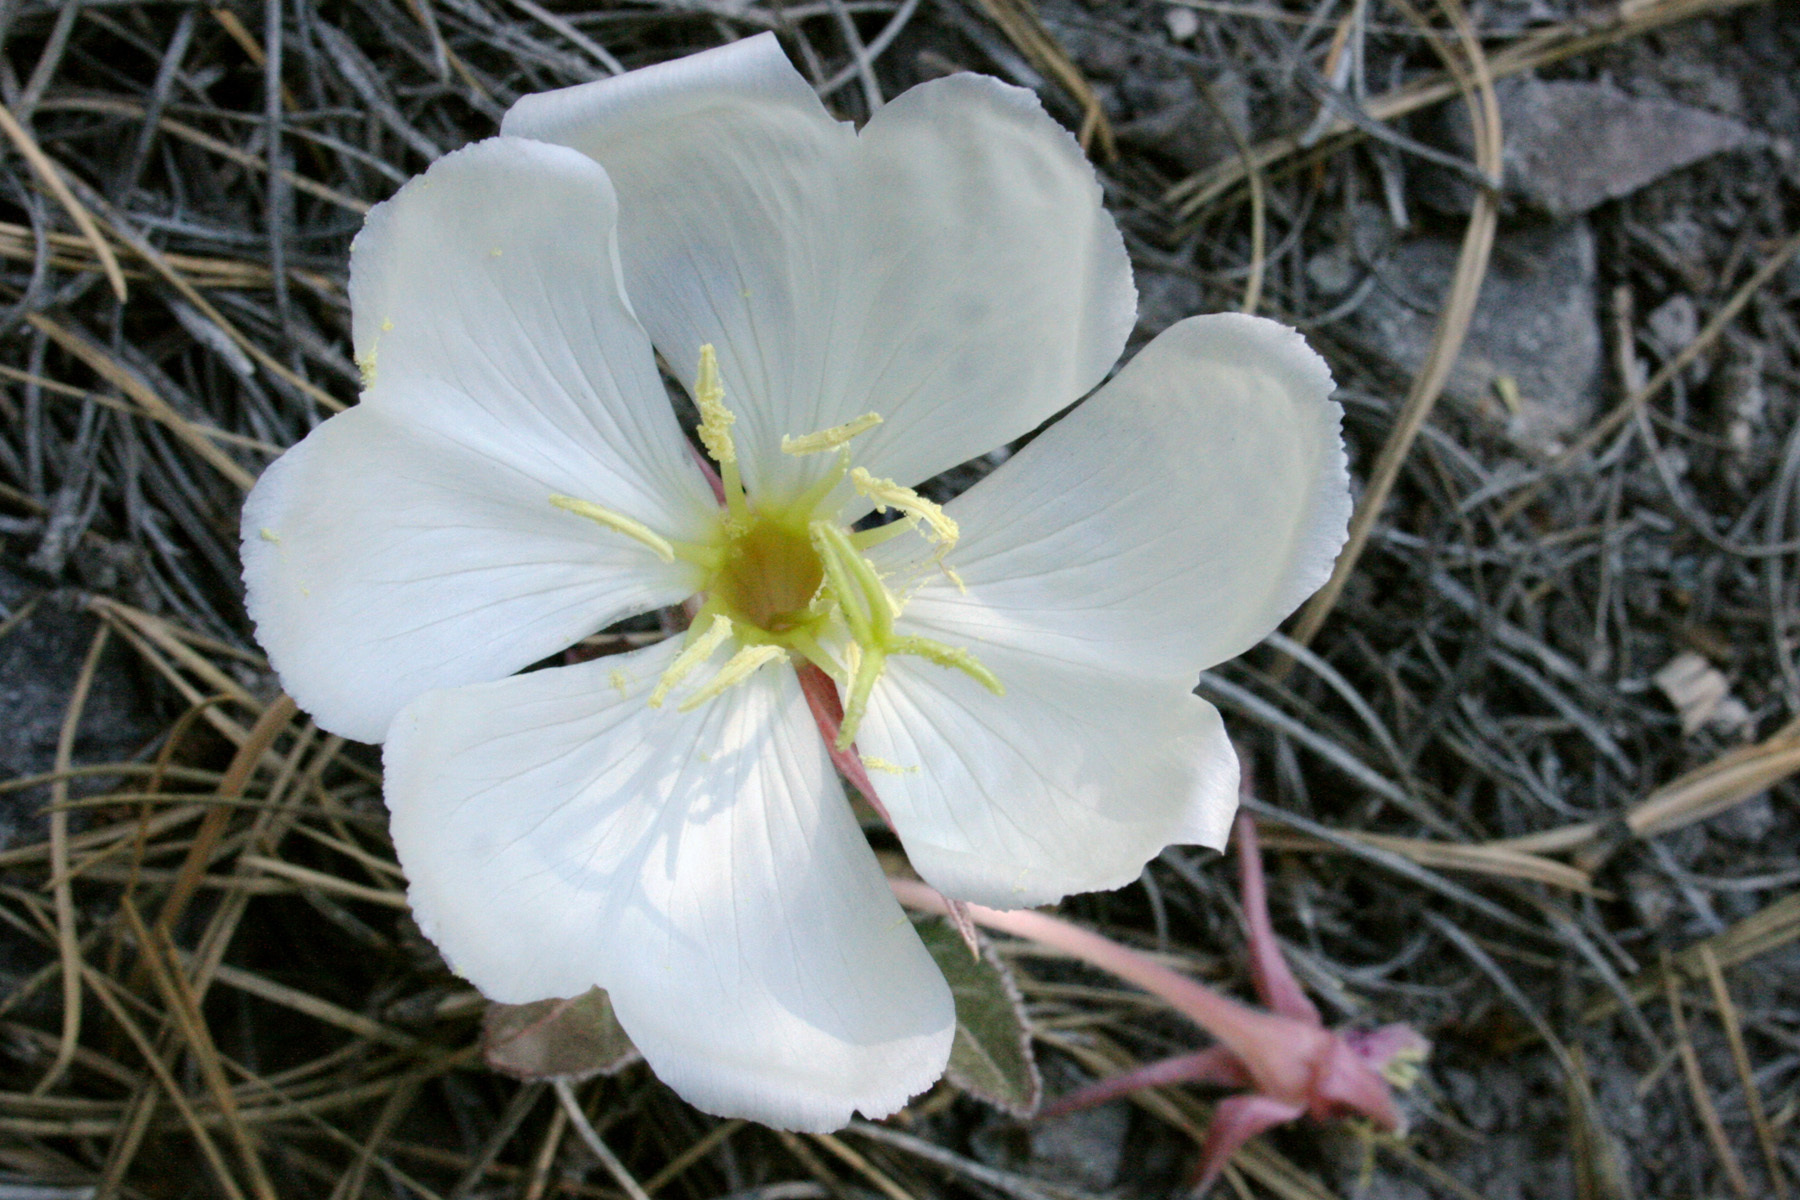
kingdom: Plantae
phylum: Tracheophyta
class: Magnoliopsida
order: Myrtales
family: Onagraceae
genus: Oenothera
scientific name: Oenothera cespitosa
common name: Tufted evening-primrose
